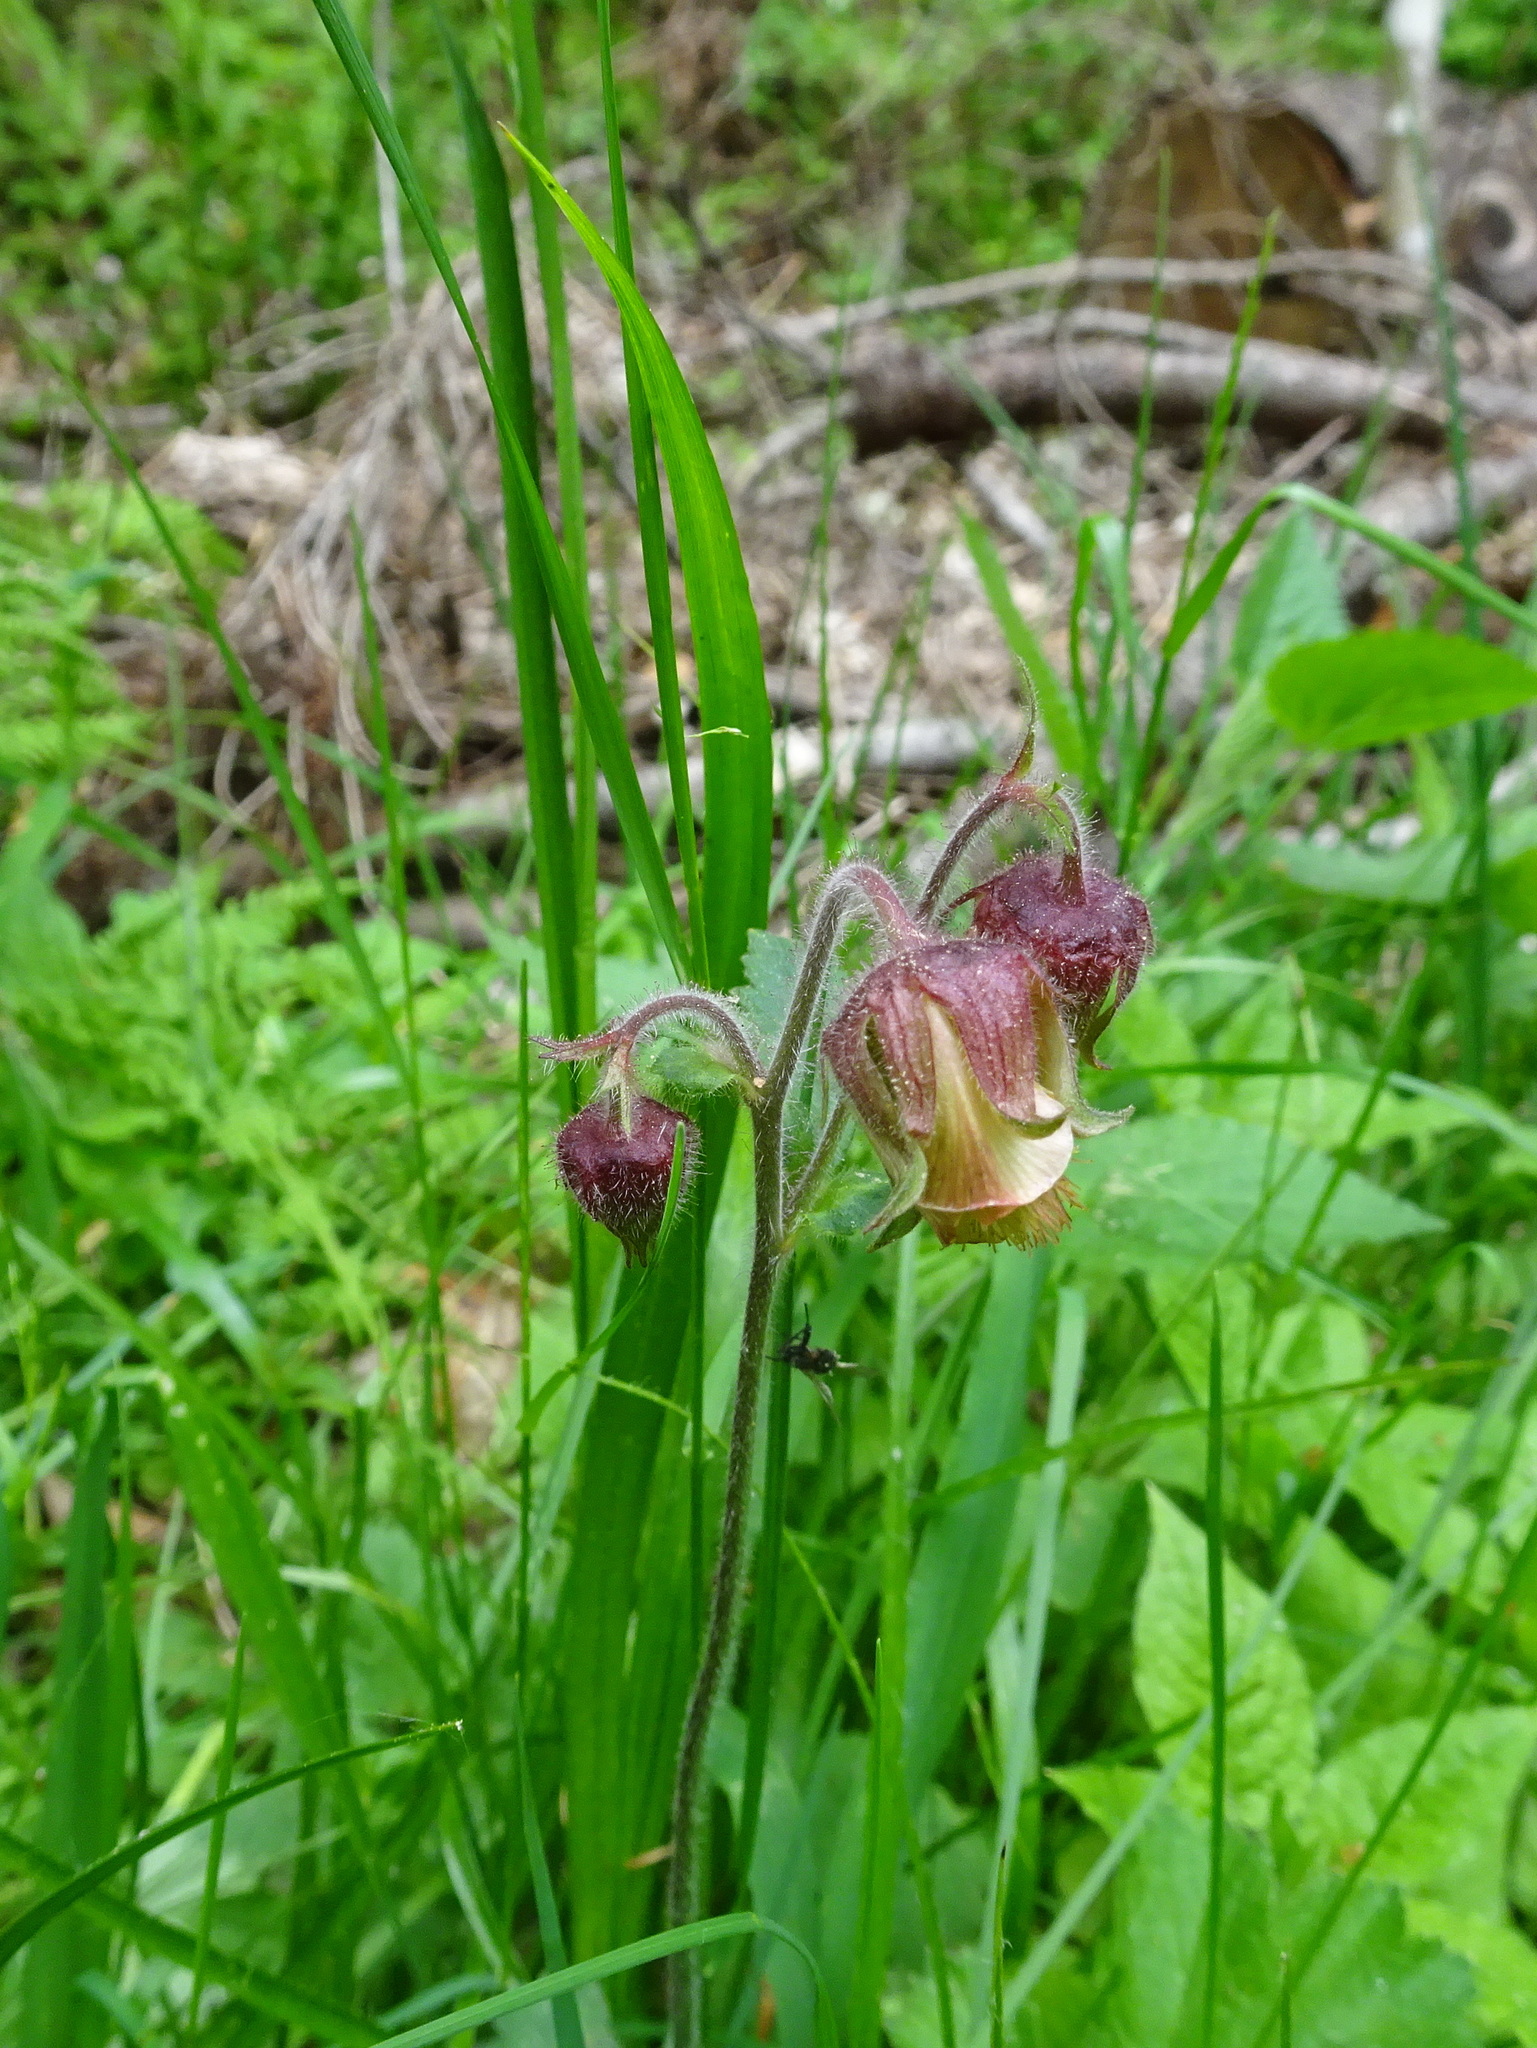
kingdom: Plantae
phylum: Tracheophyta
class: Magnoliopsida
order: Rosales
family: Rosaceae
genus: Geum
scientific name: Geum rivale
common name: Water avens
